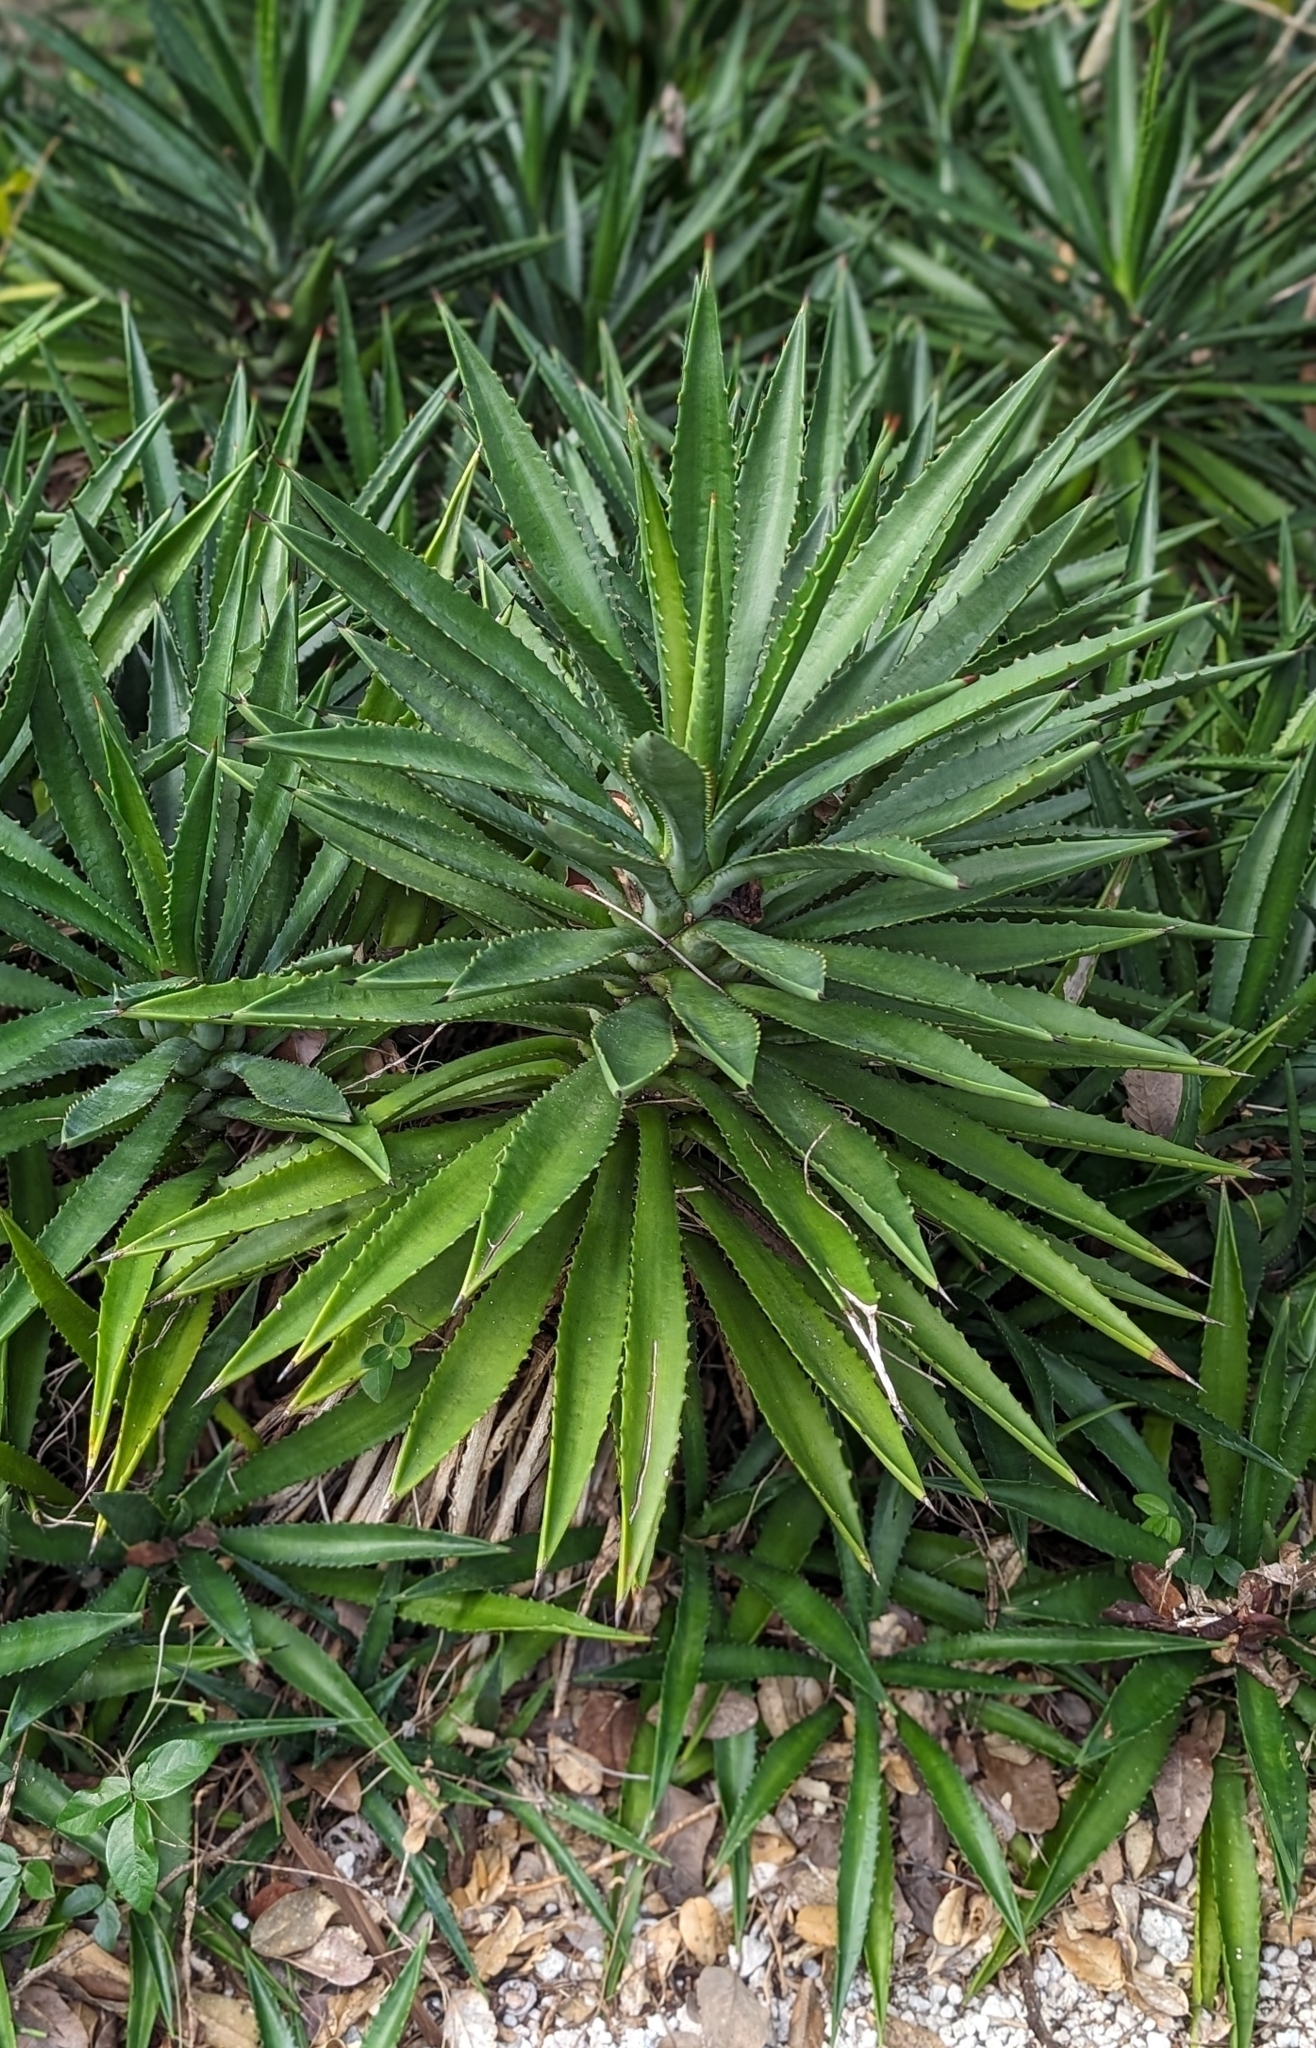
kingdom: Plantae
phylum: Tracheophyta
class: Liliopsida
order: Asparagales
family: Asparagaceae
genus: Agave
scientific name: Agave decipiens
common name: False sisal
